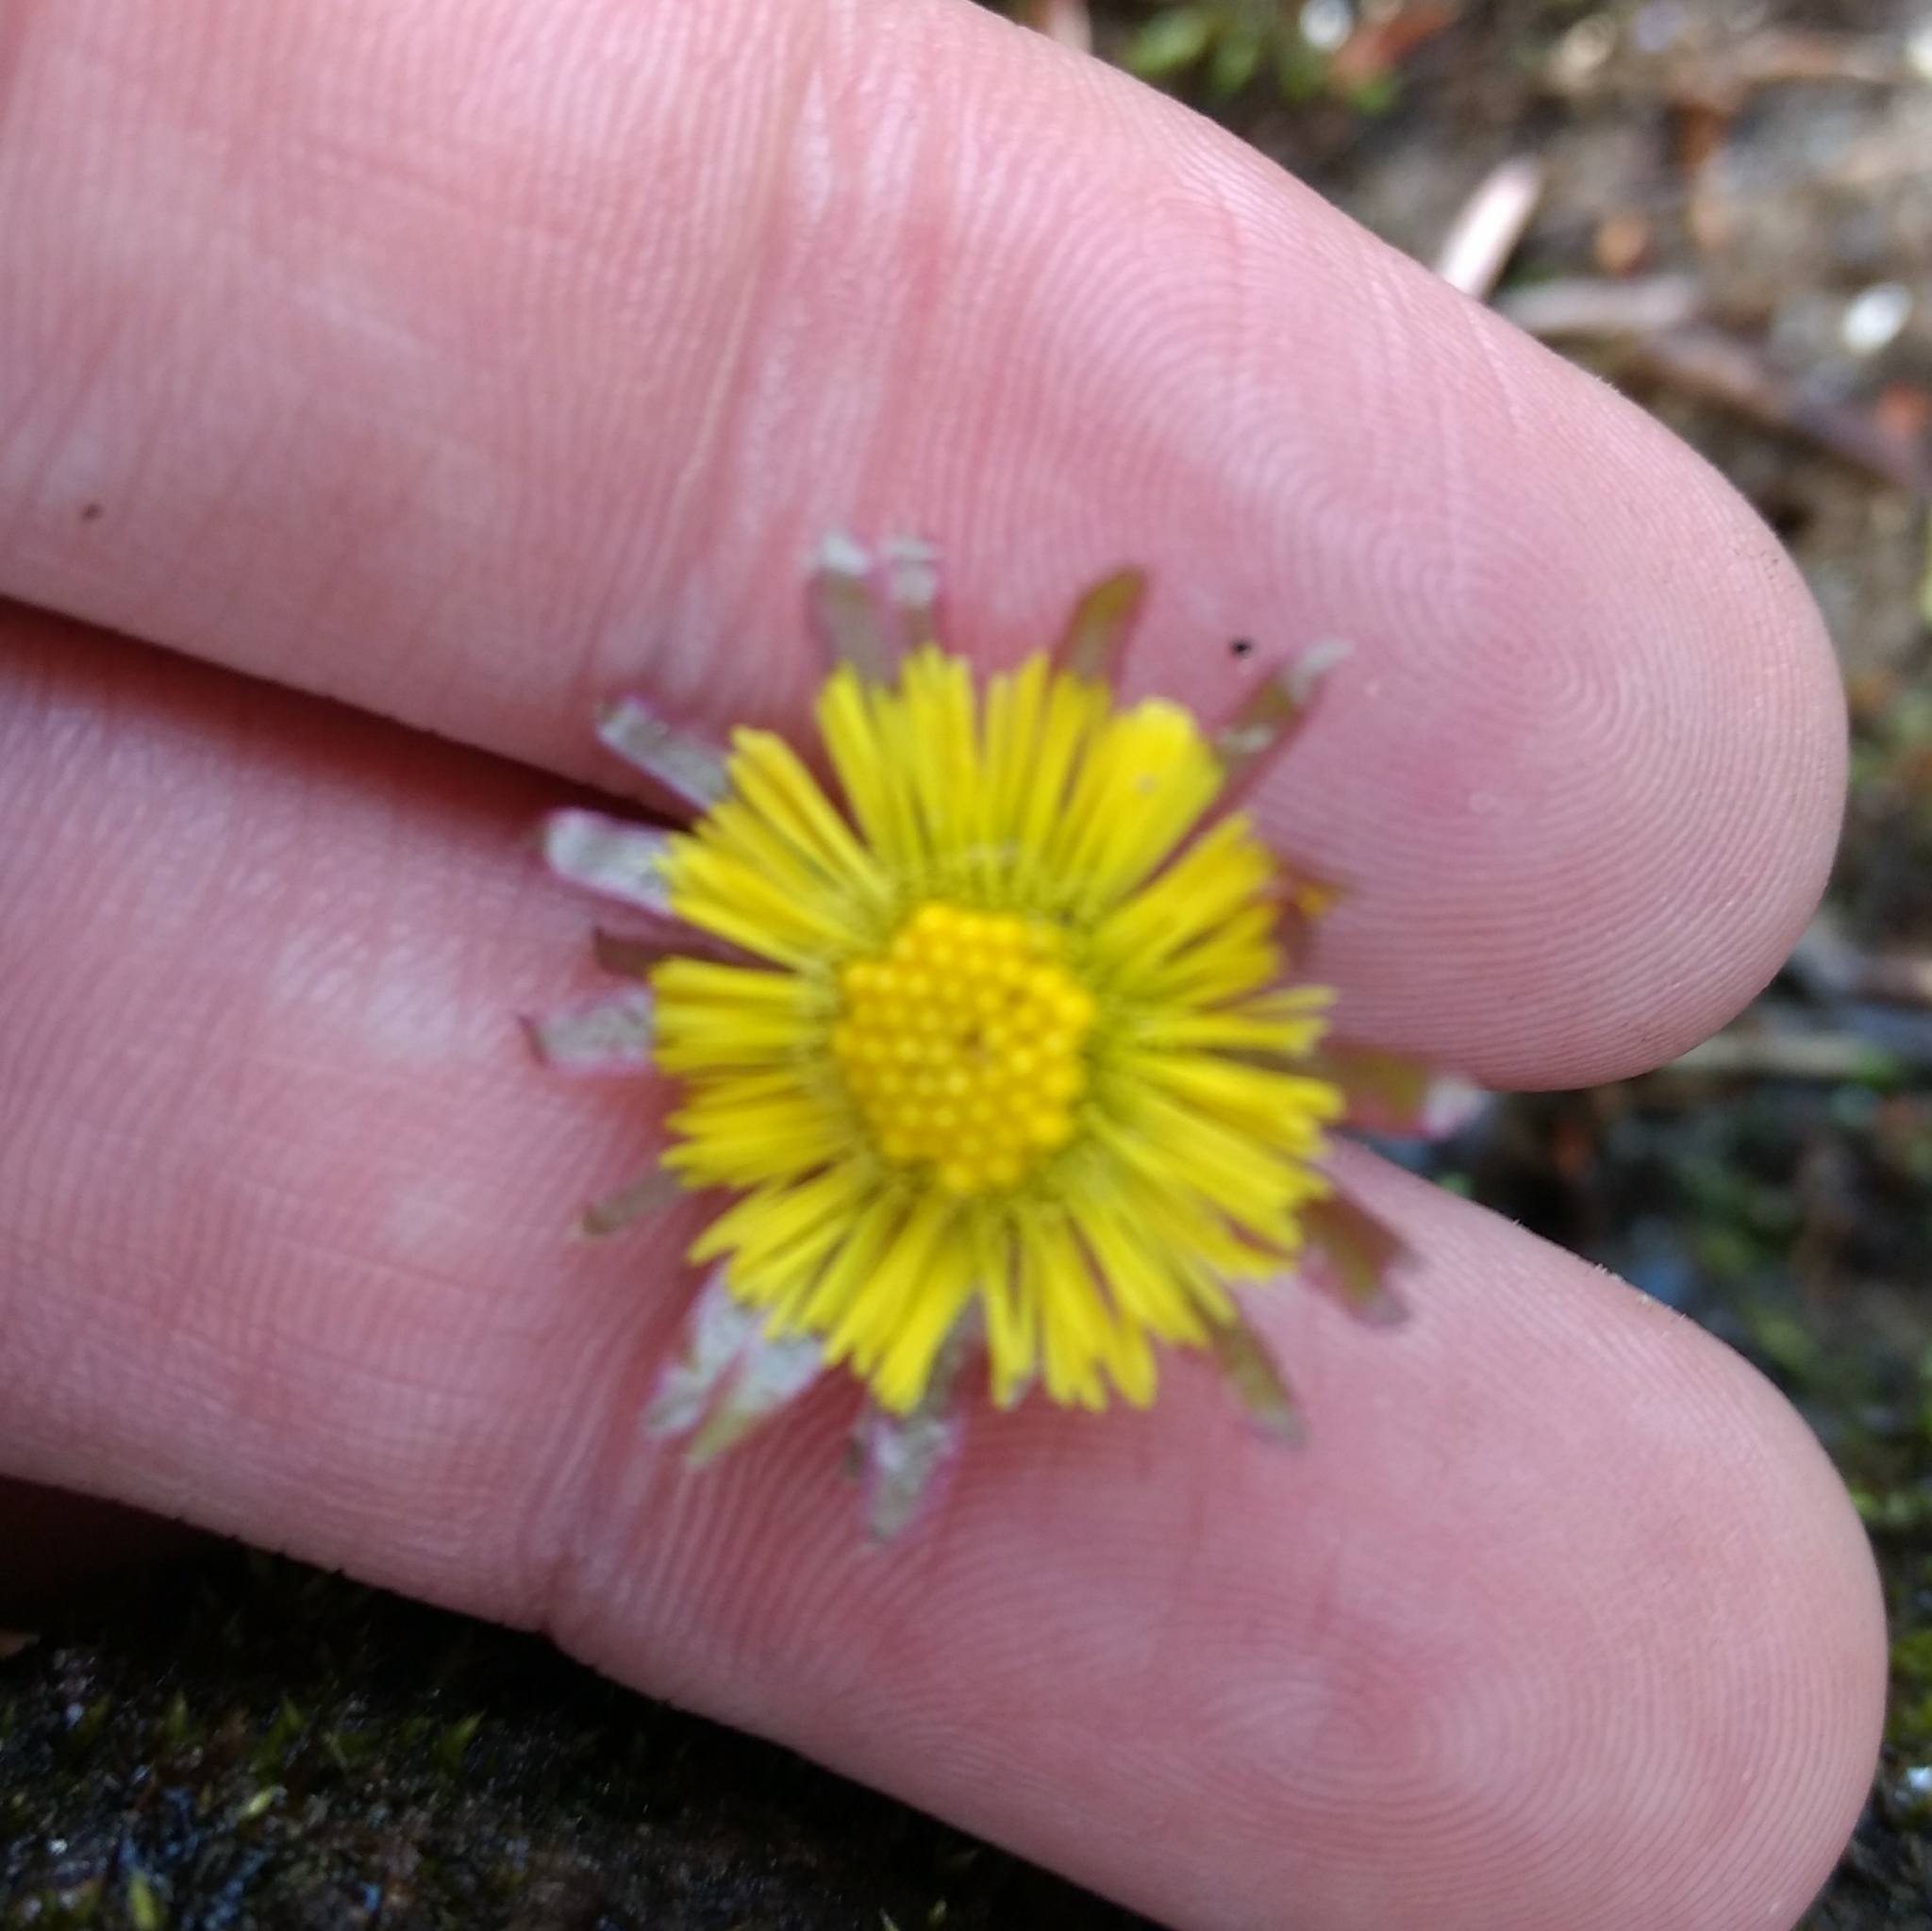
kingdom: Plantae
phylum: Tracheophyta
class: Magnoliopsida
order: Asterales
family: Asteraceae
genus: Tussilago
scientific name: Tussilago farfara
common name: Coltsfoot
